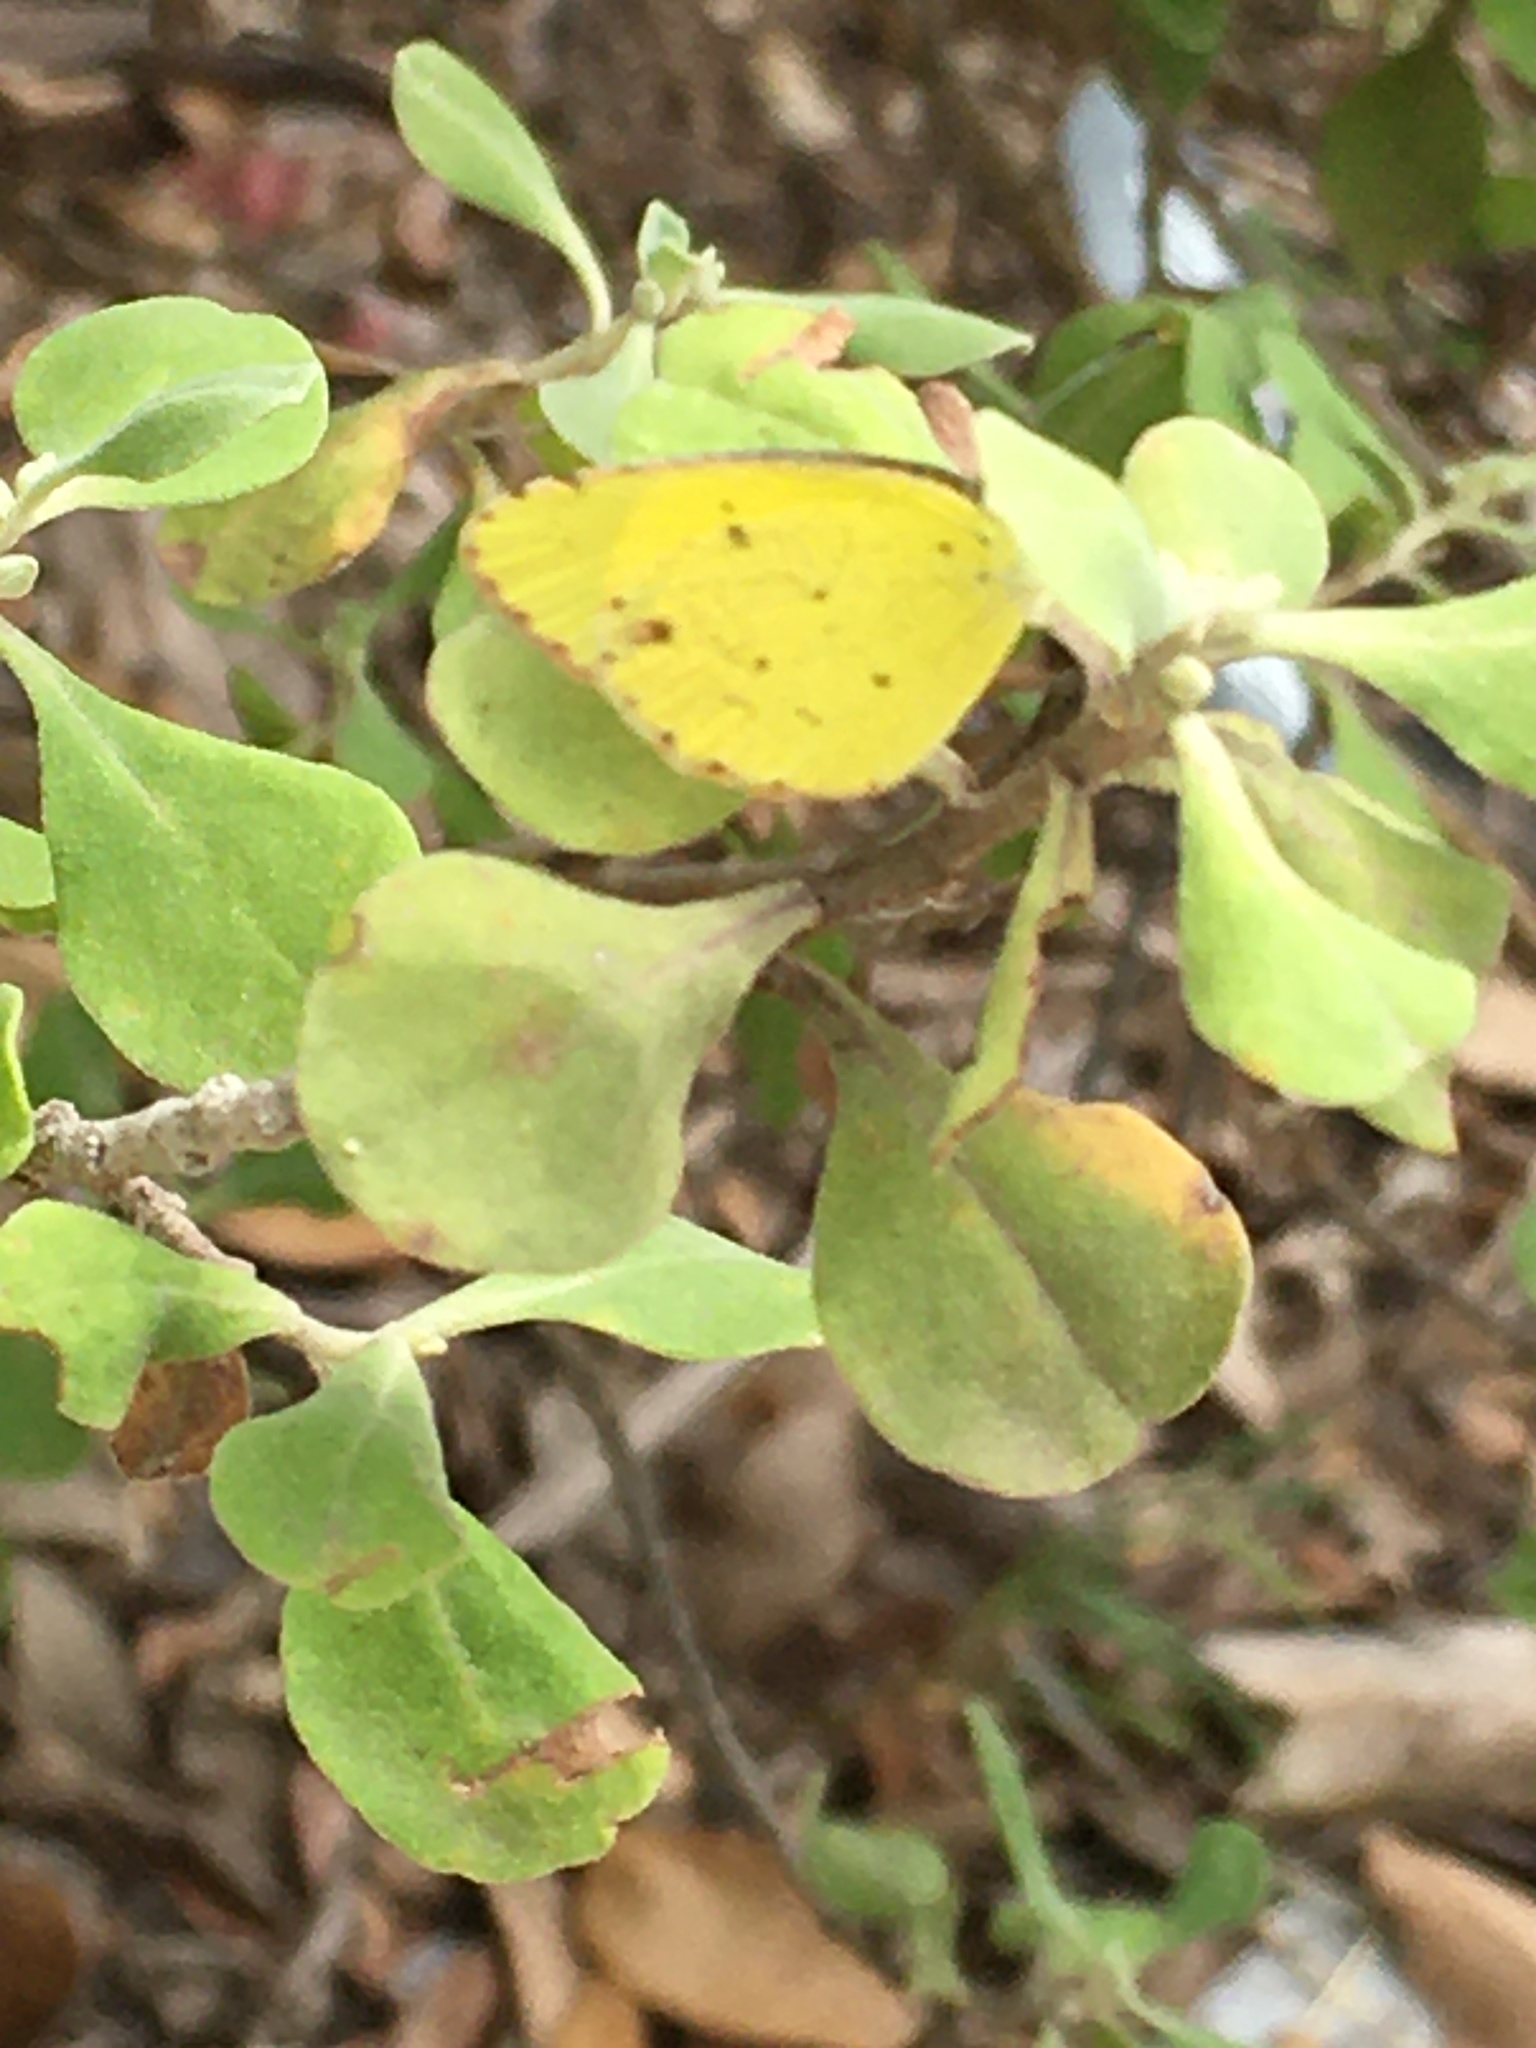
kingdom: Animalia
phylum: Arthropoda
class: Insecta
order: Lepidoptera
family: Pieridae
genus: Pyrisitia
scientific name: Pyrisitia lisa
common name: Little yellow
